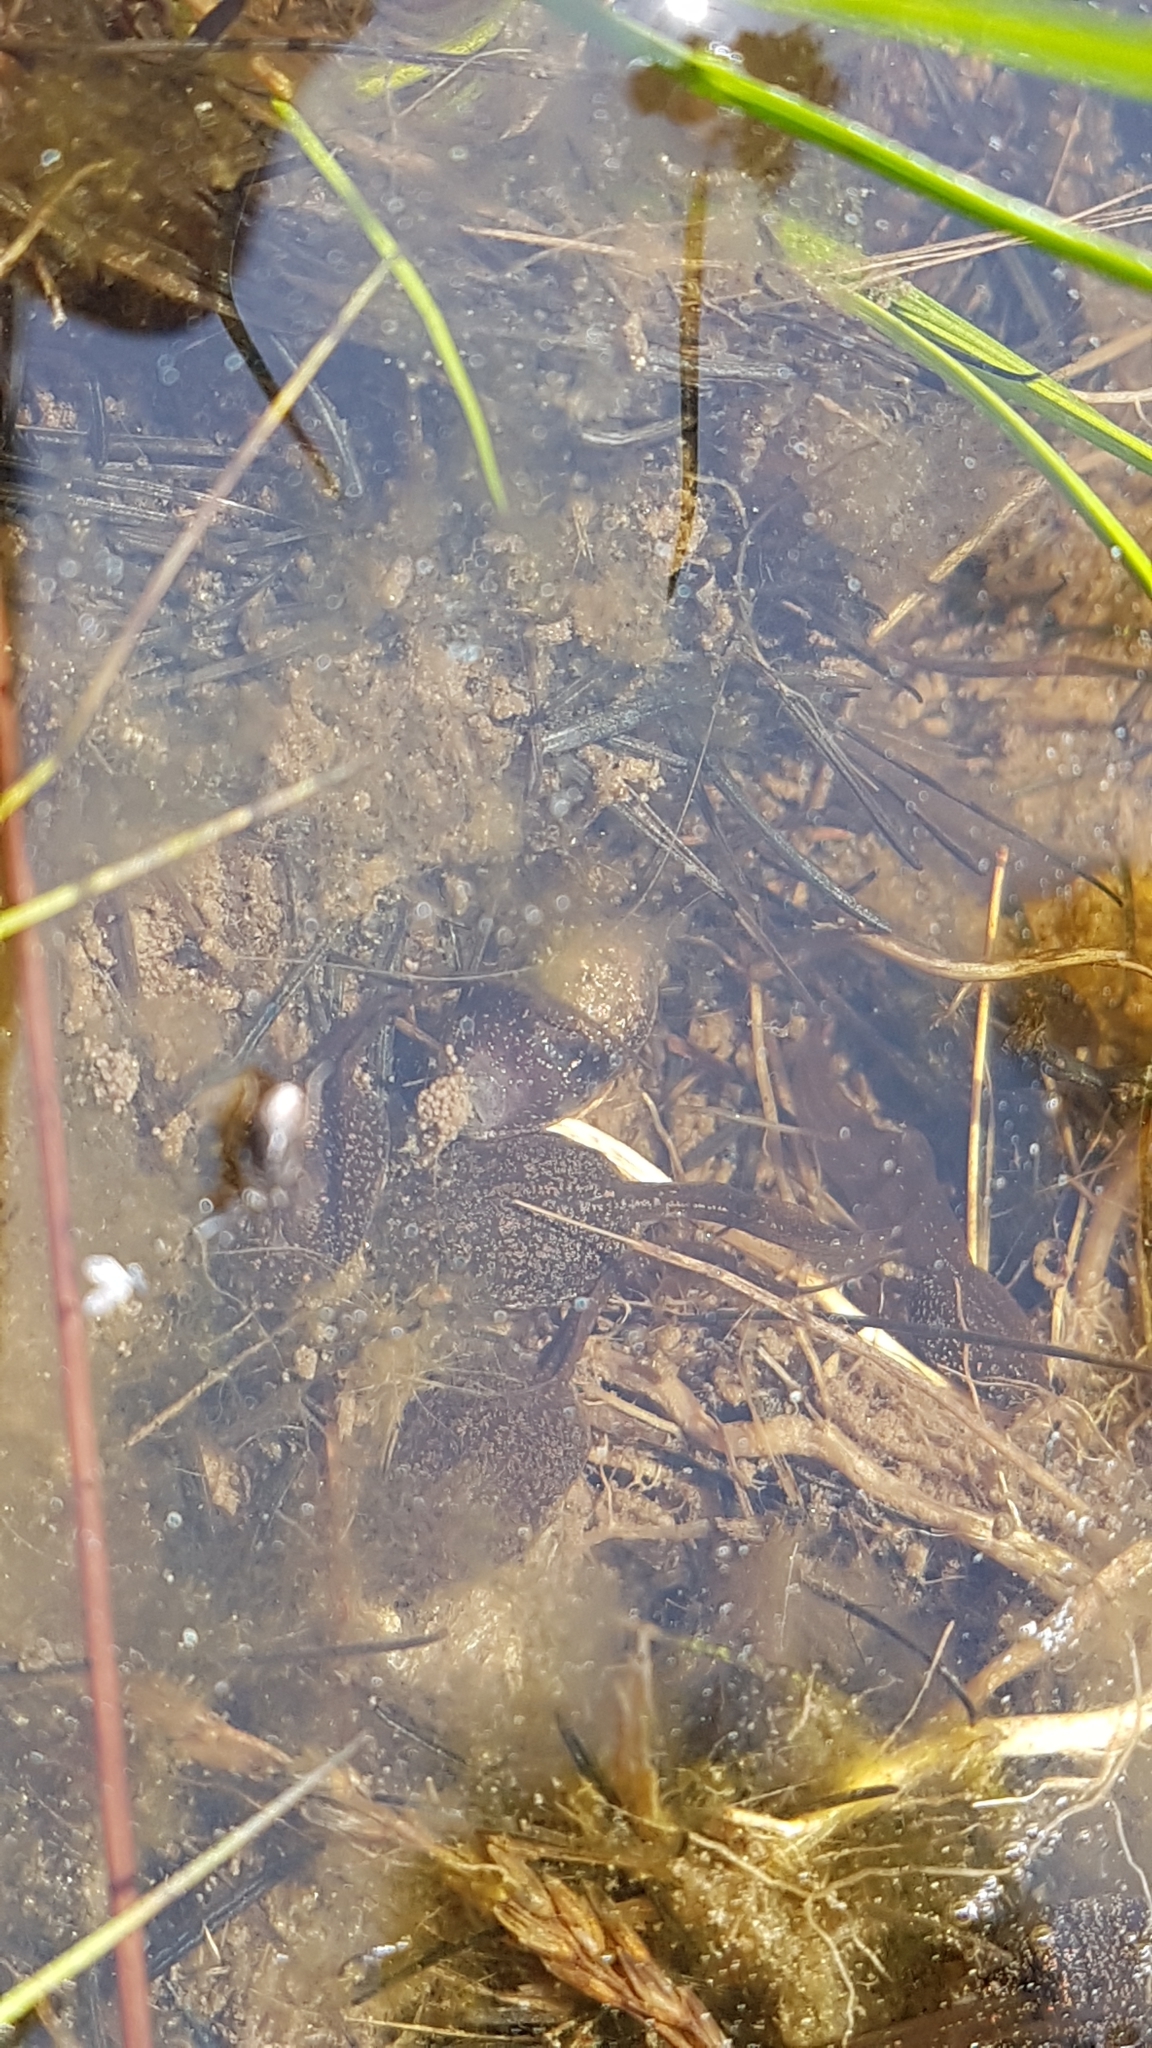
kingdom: Animalia
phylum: Chordata
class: Amphibia
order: Anura
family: Ranidae
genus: Rana
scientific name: Rana temporaria
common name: Common frog
